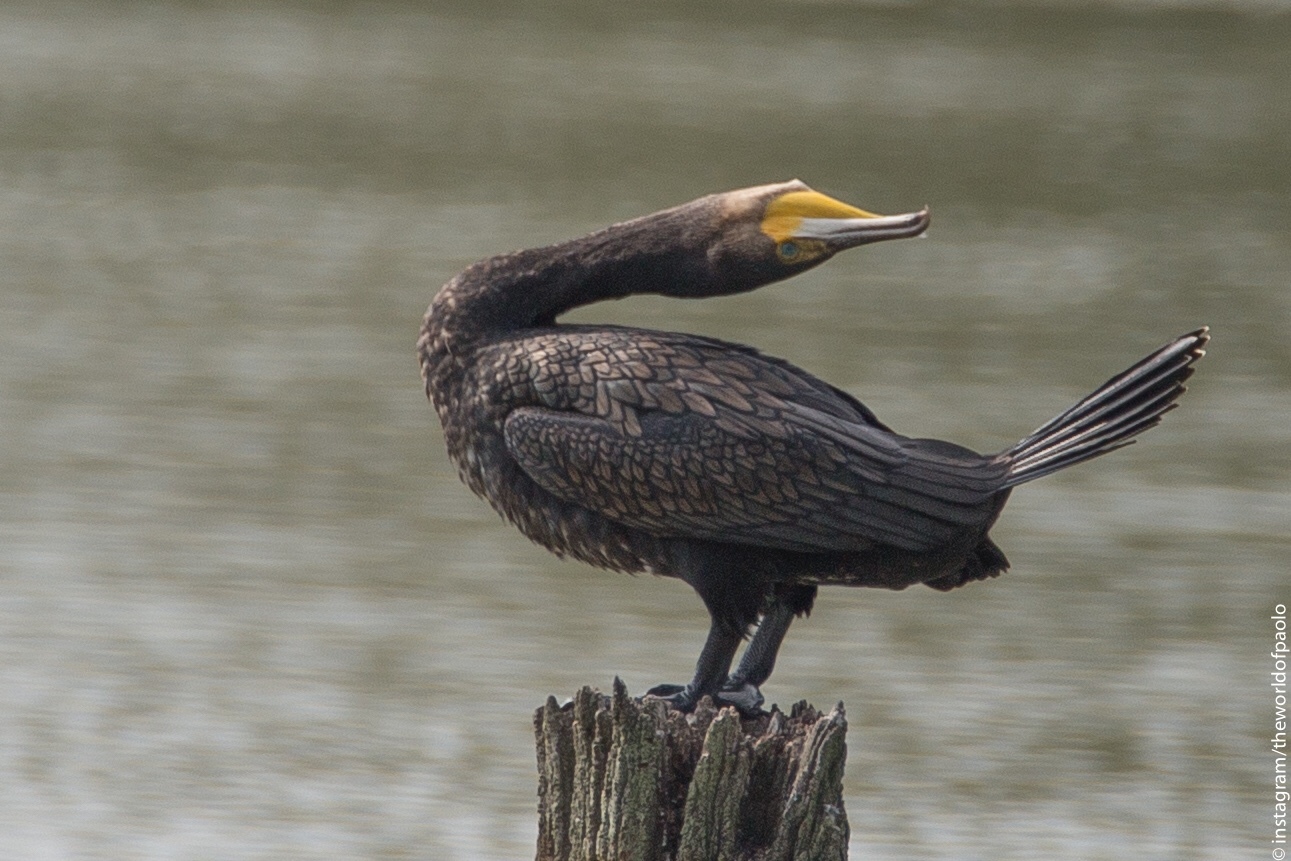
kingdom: Animalia
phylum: Chordata
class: Aves
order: Suliformes
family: Phalacrocoracidae
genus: Phalacrocorax
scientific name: Phalacrocorax carbo
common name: Great cormorant
